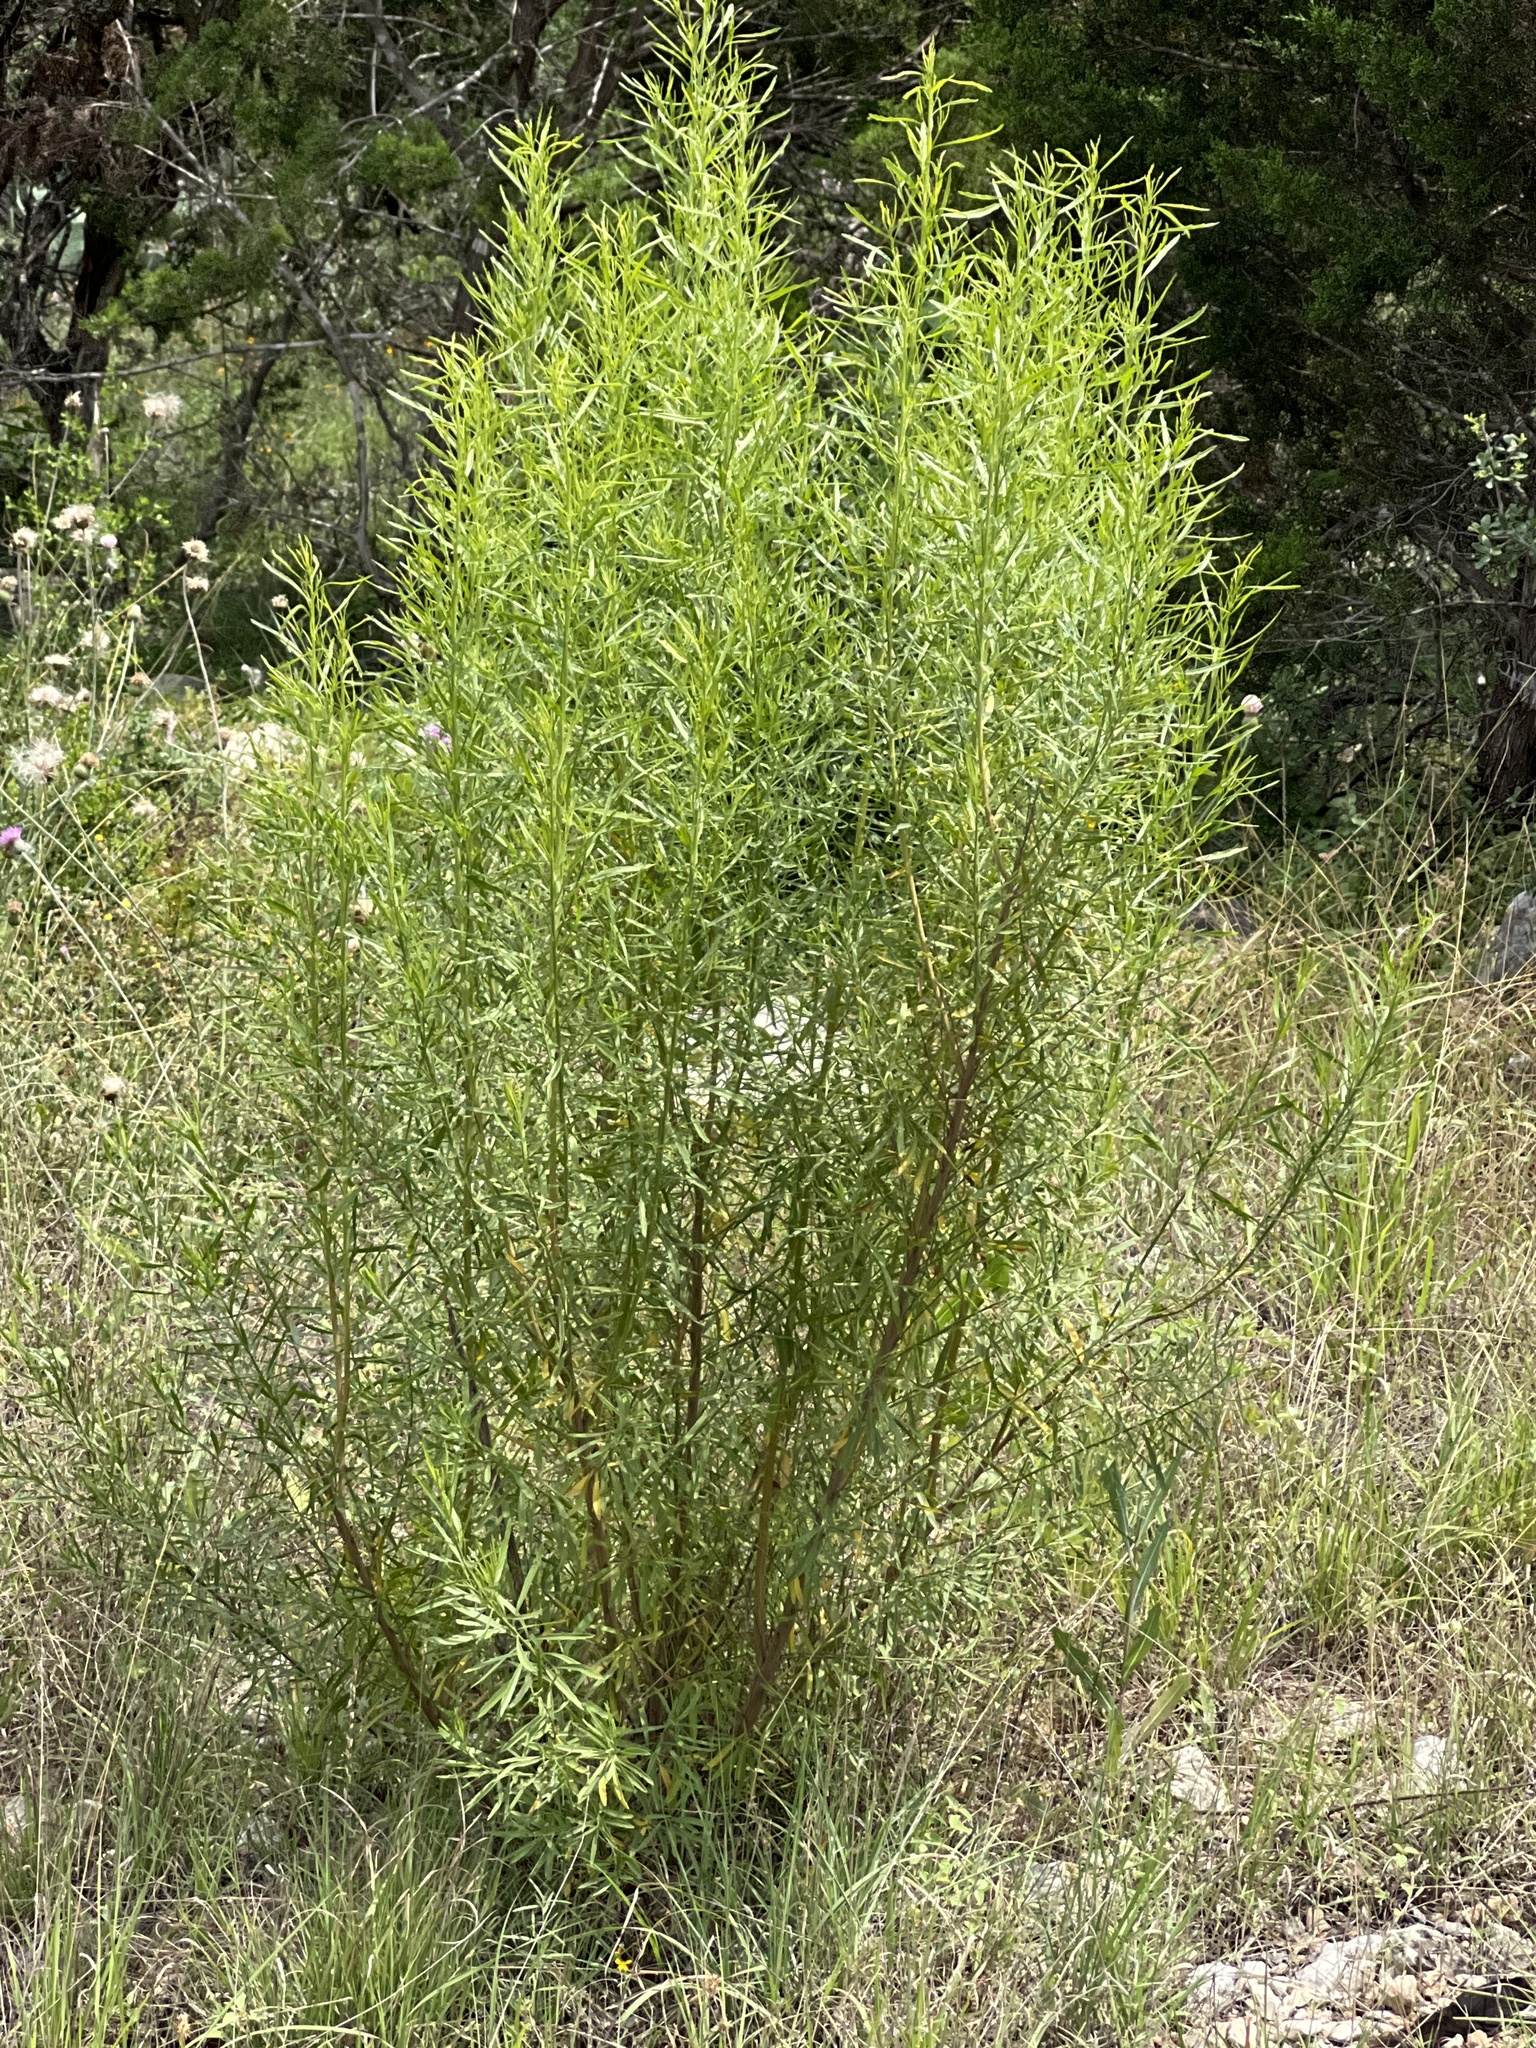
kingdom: Plantae
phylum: Tracheophyta
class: Magnoliopsida
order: Asterales
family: Asteraceae
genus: Baccharis
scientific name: Baccharis neglecta
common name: Roosevelt-weed
